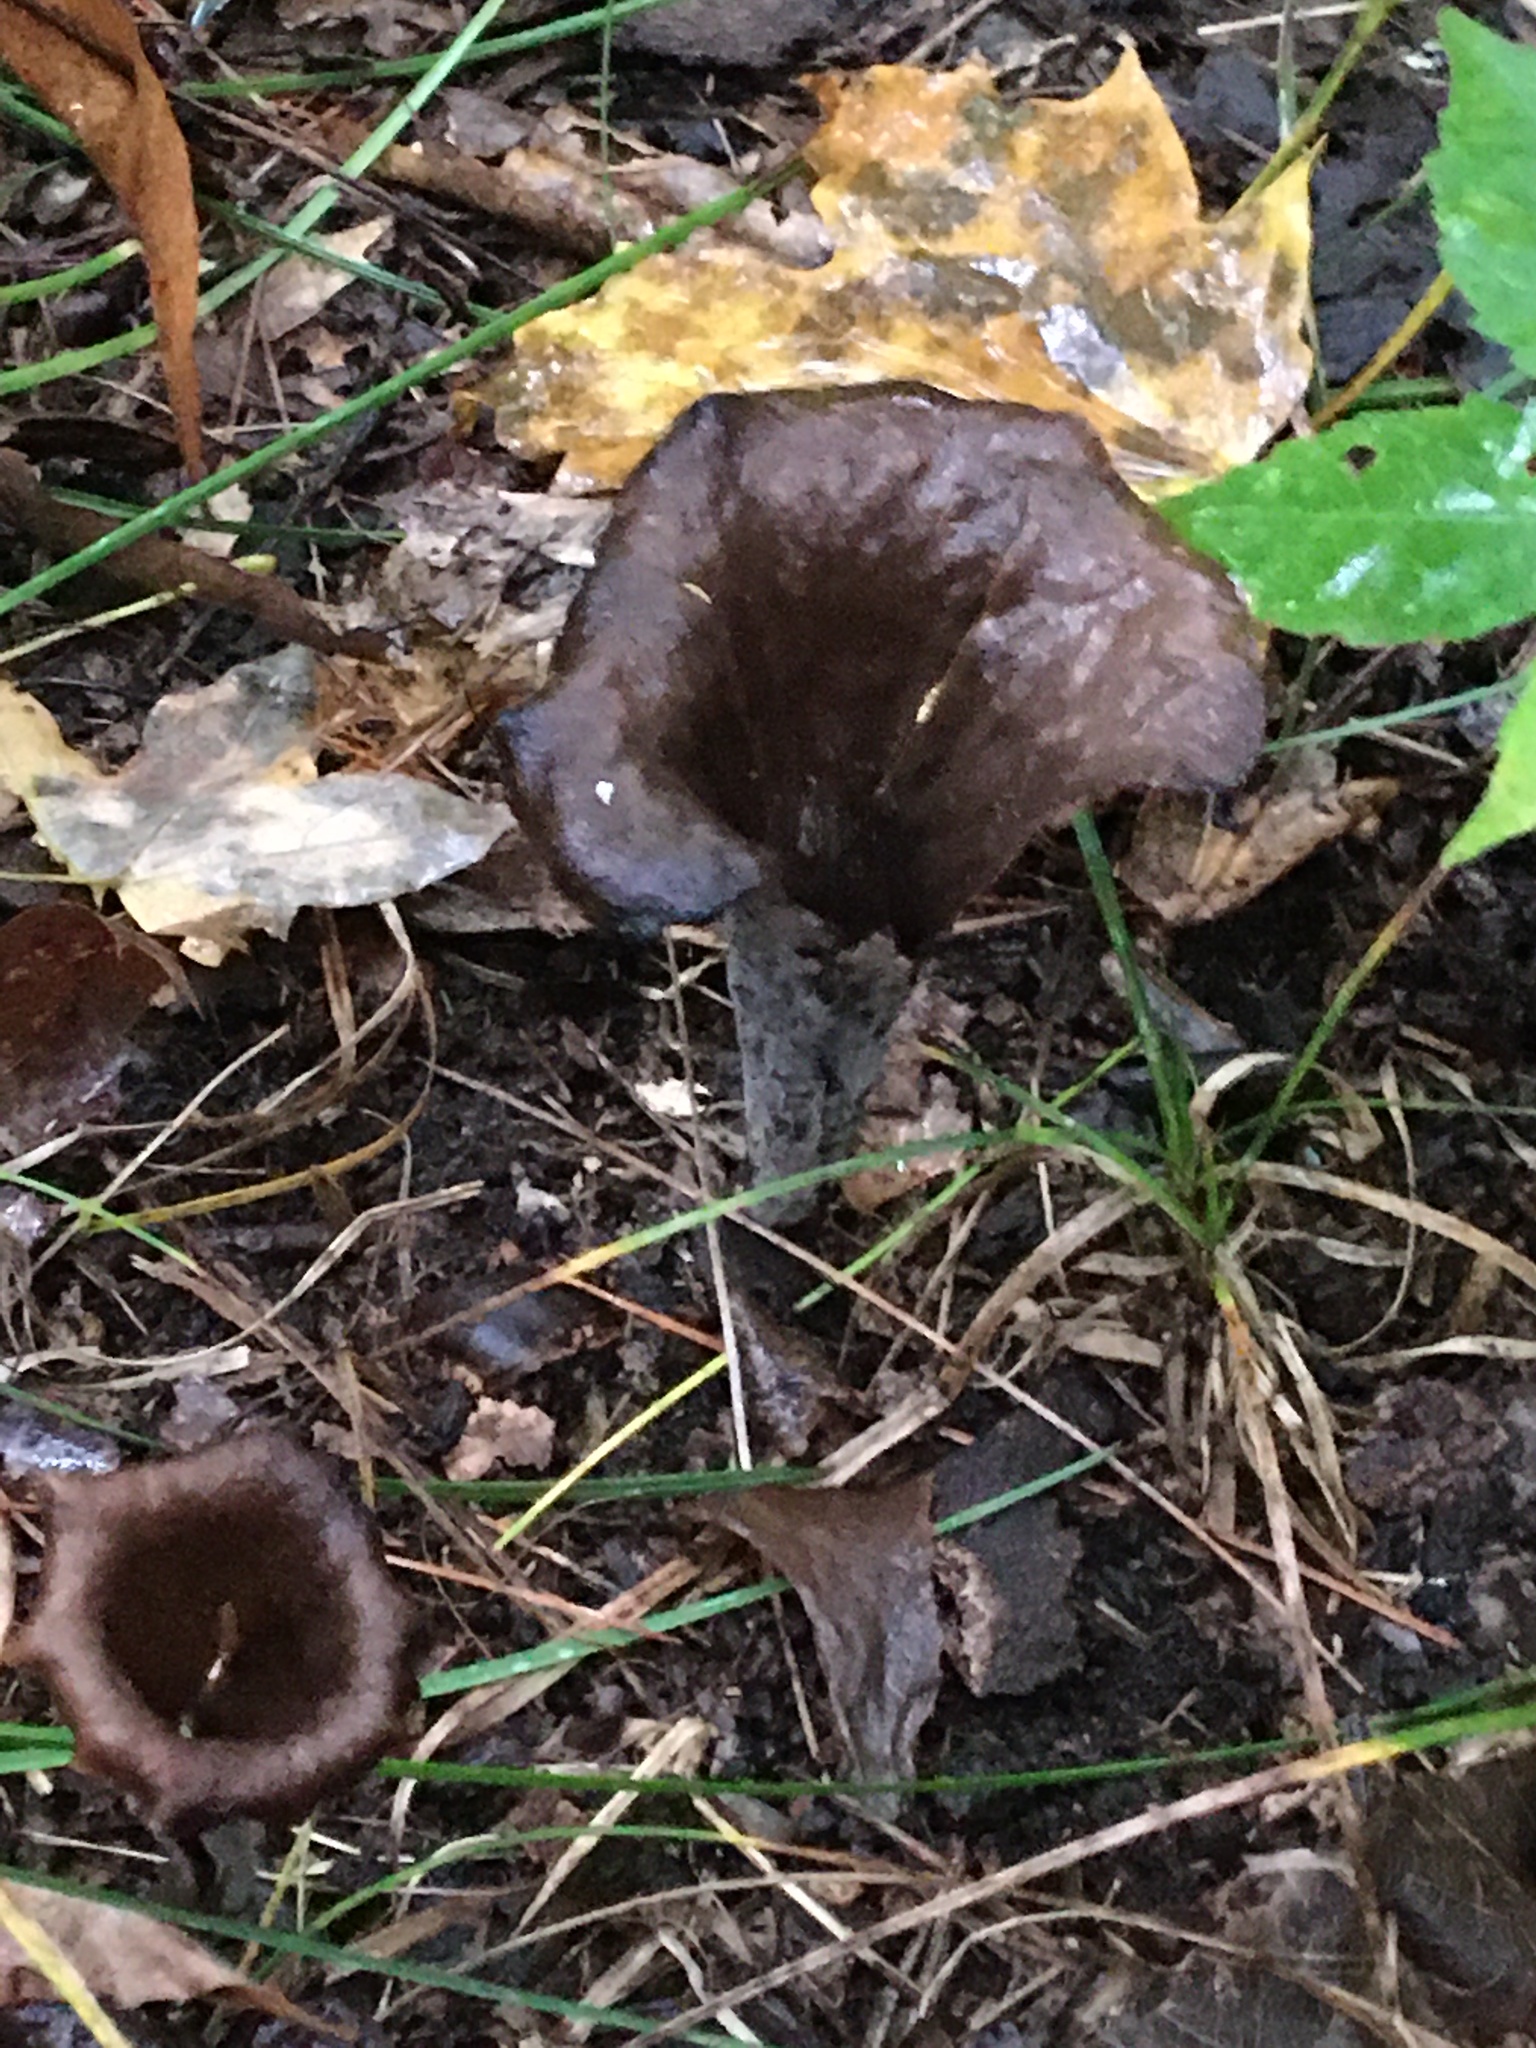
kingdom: Fungi
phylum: Basidiomycota
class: Agaricomycetes
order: Cantharellales
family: Hydnaceae
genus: Craterellus
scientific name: Craterellus cornucopioides
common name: Horn of plenty
